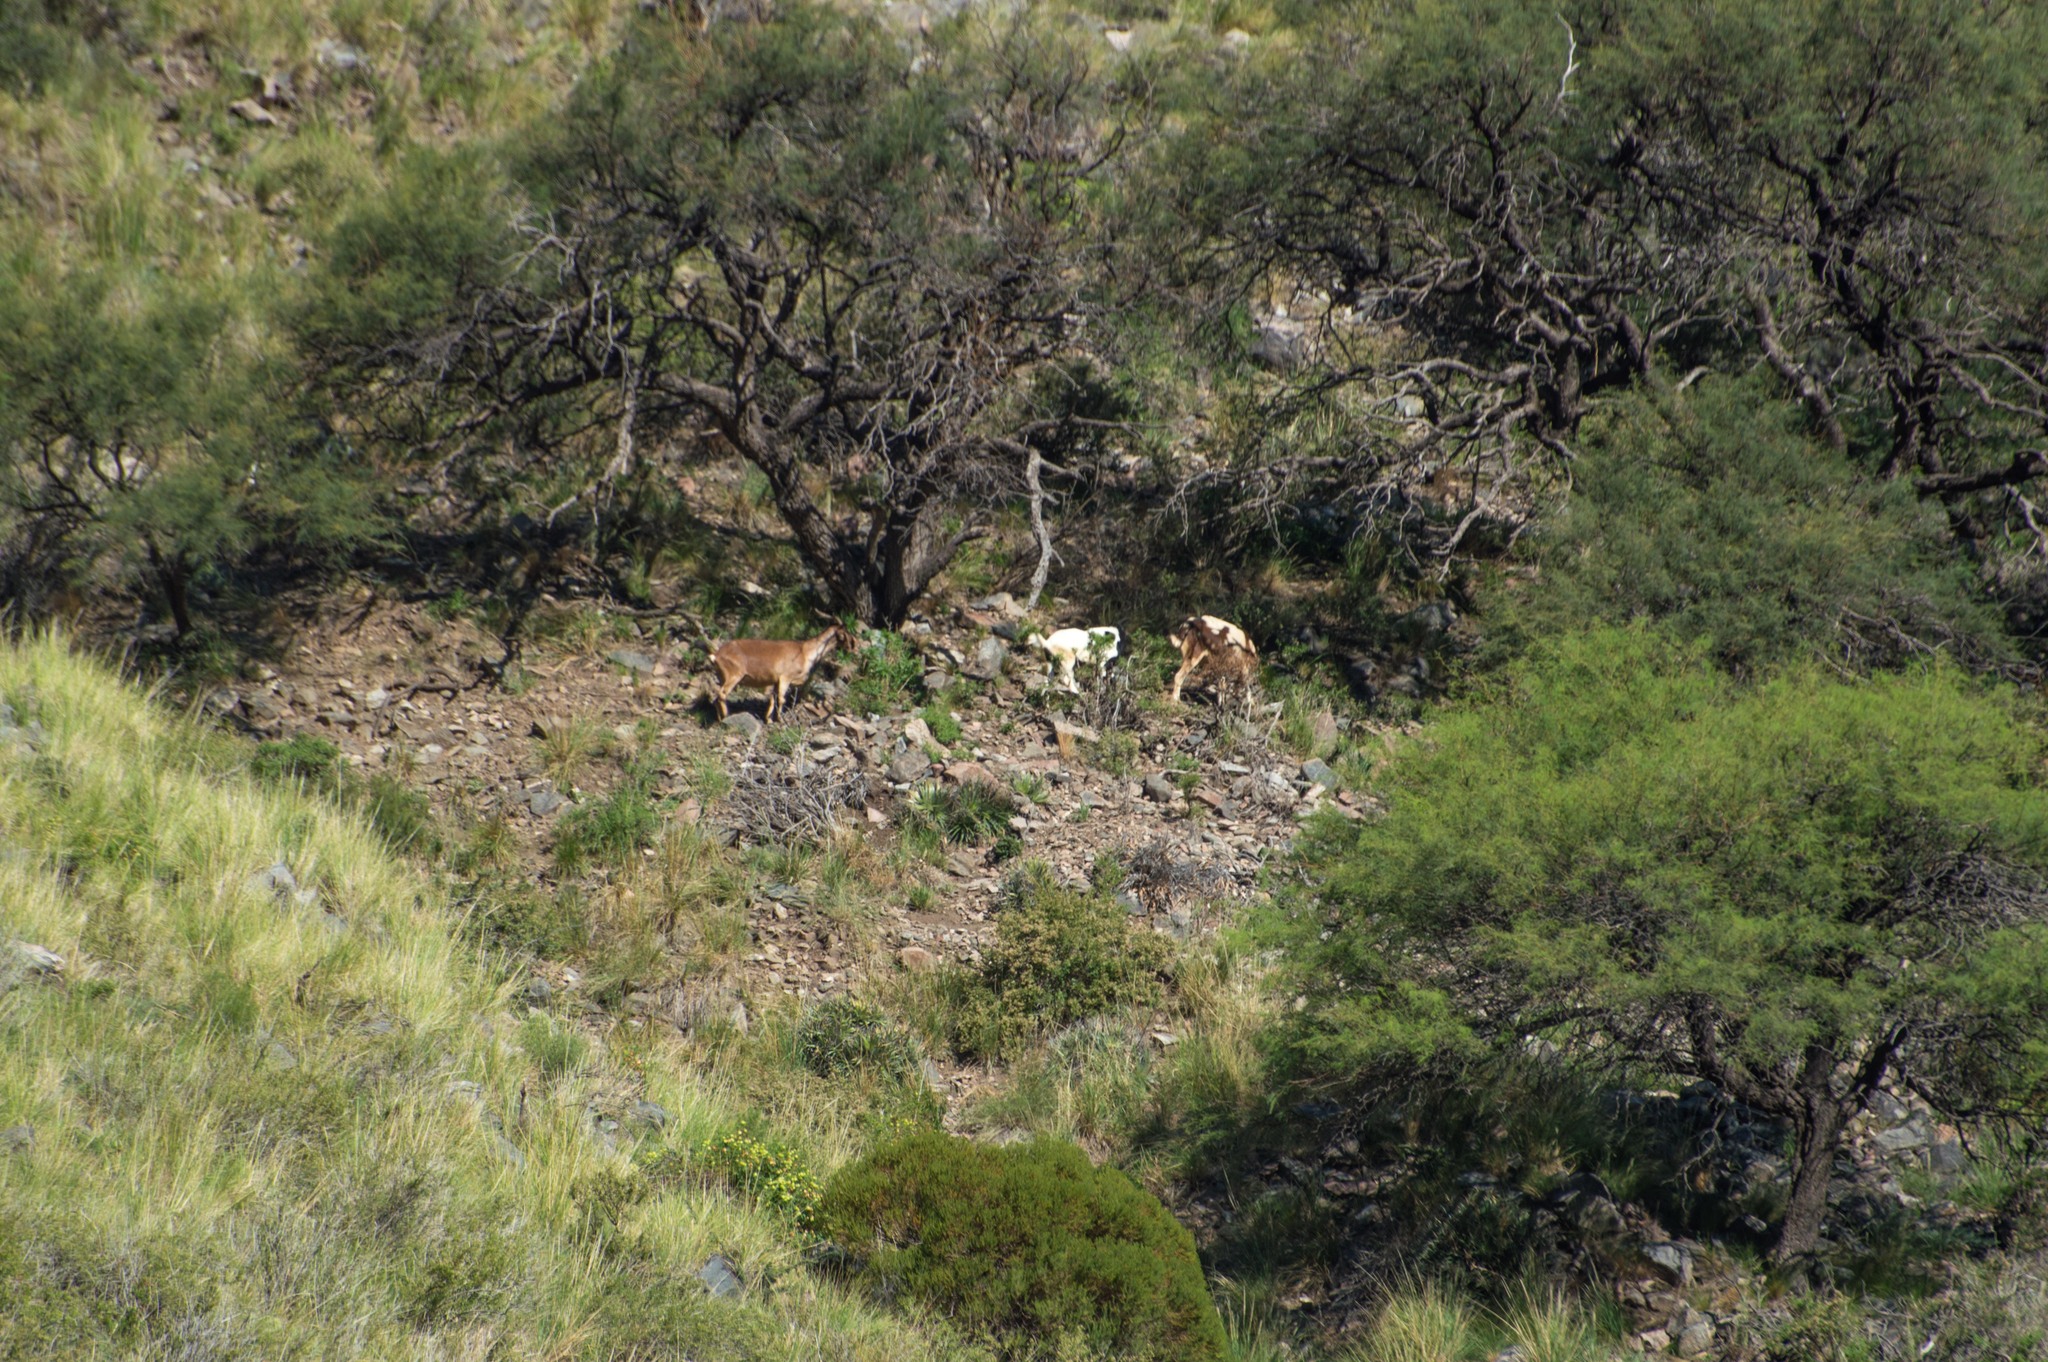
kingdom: Animalia
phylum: Chordata
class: Mammalia
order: Artiodactyla
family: Bovidae
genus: Capra
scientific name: Capra hircus
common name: Domestic goat
